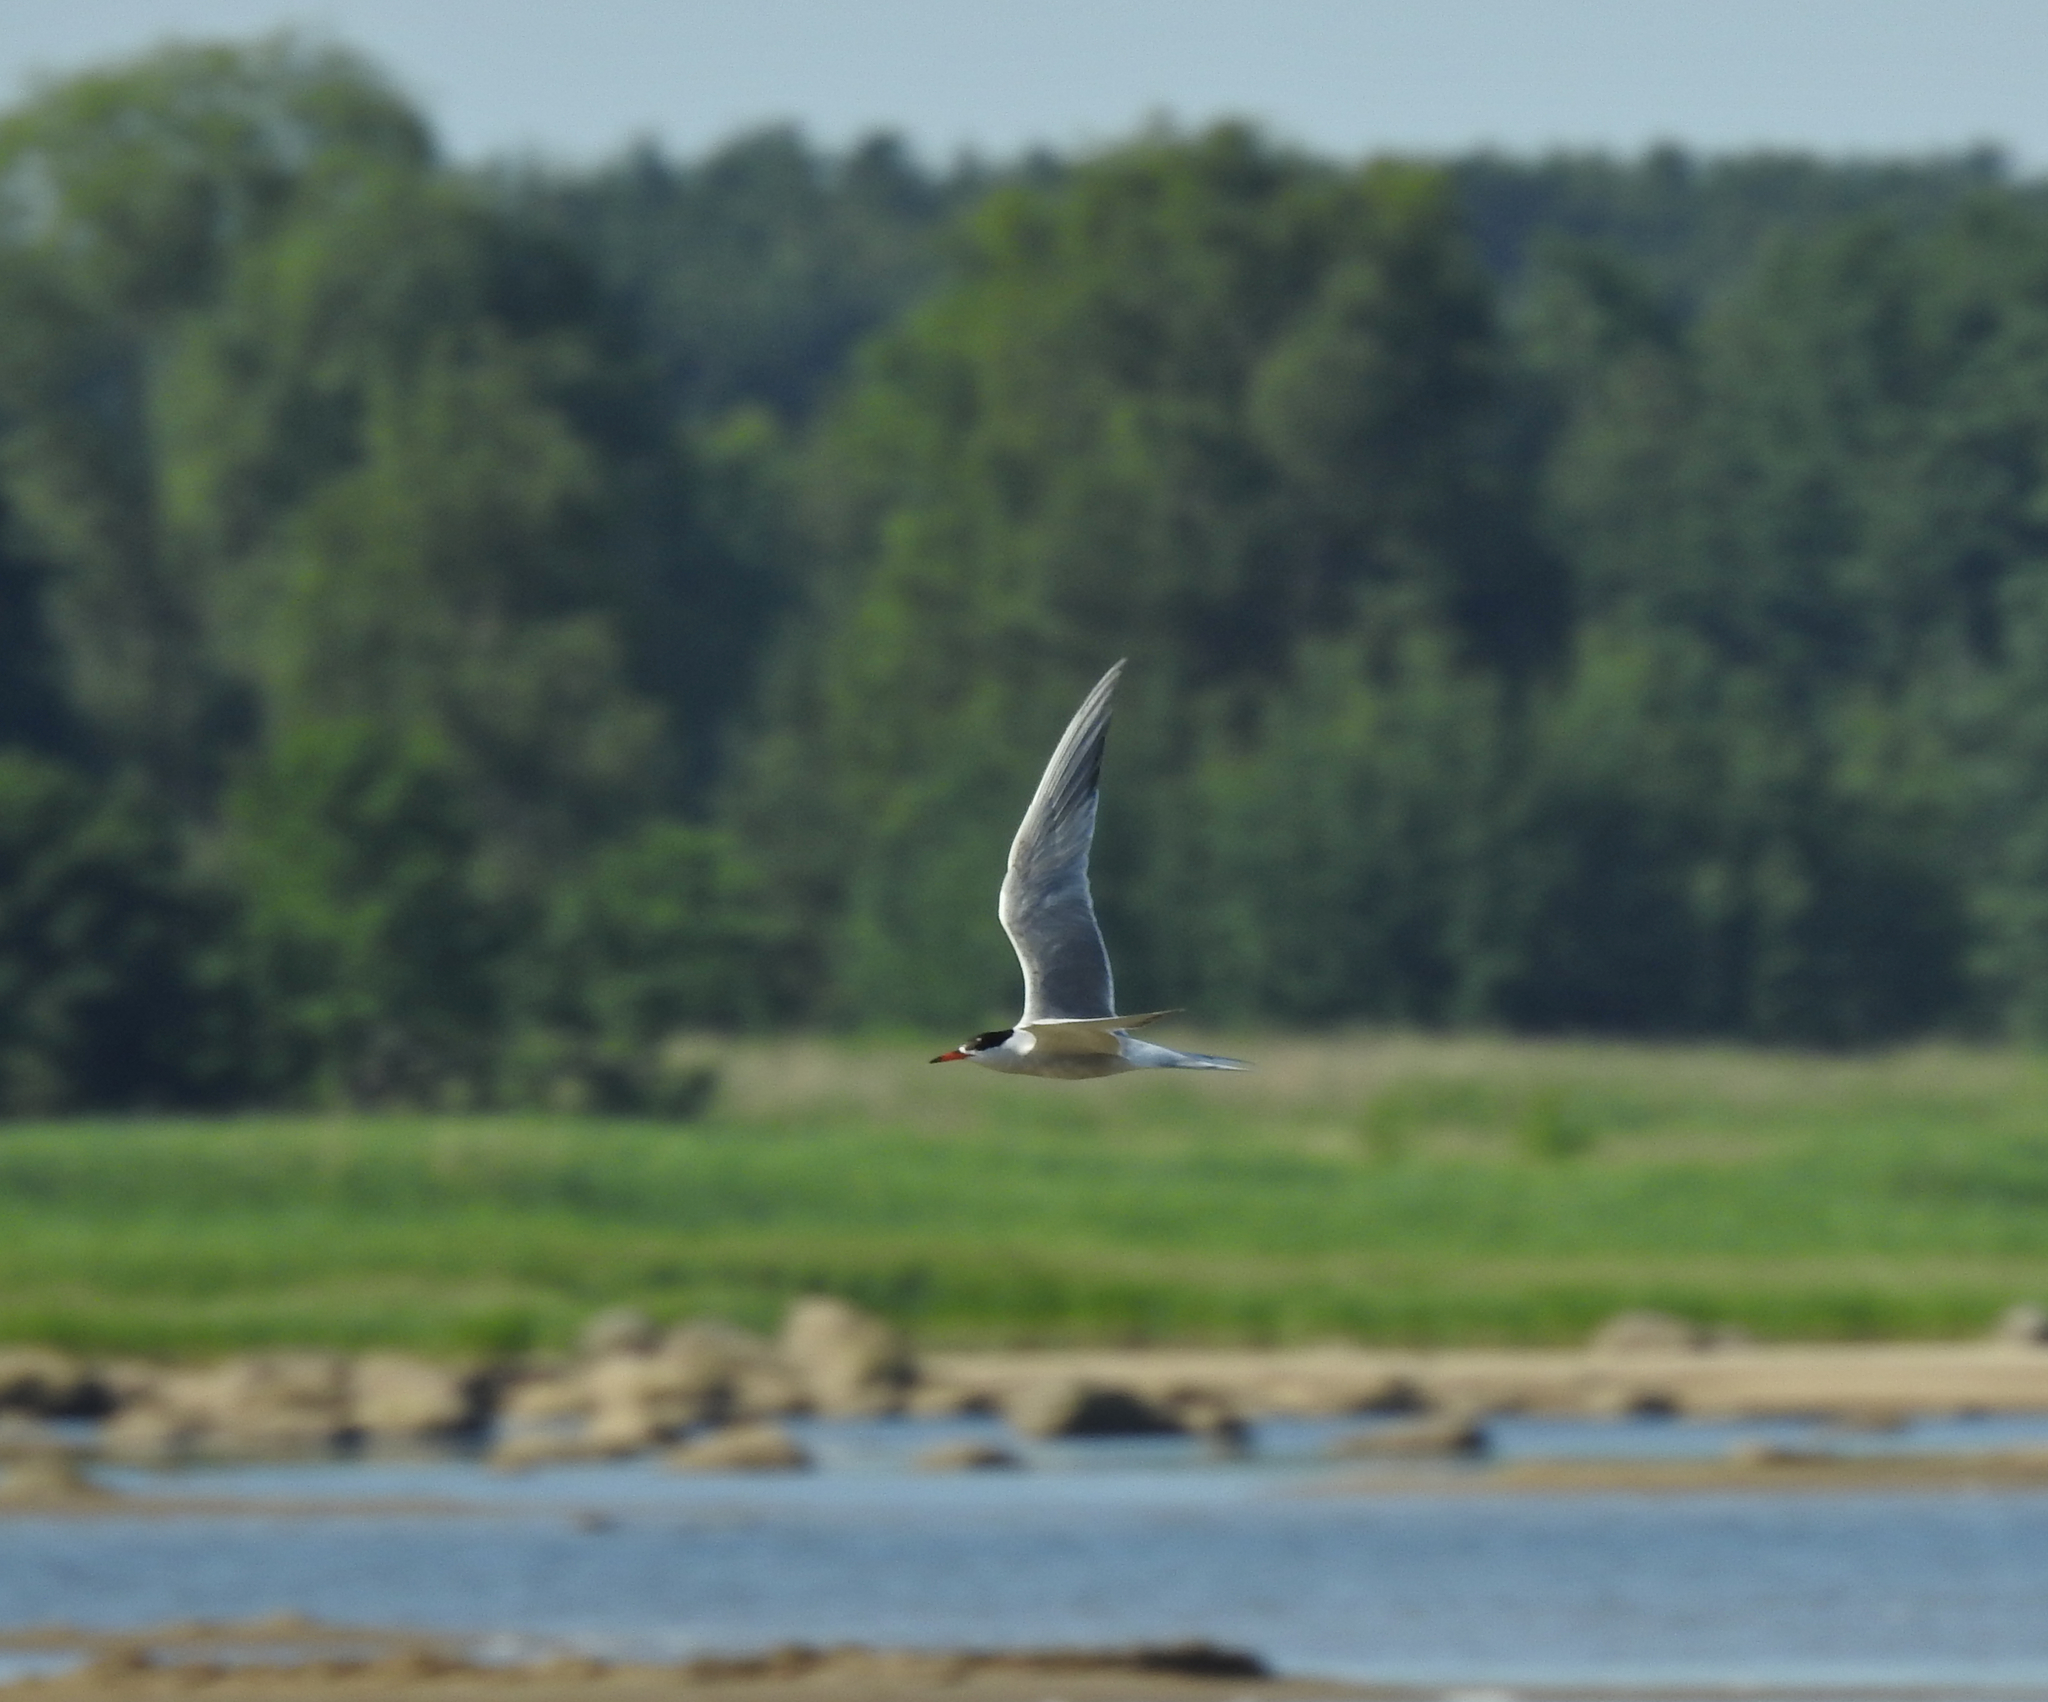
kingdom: Animalia
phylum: Chordata
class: Aves
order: Charadriiformes
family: Laridae
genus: Sterna
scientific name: Sterna hirundo
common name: Common tern
